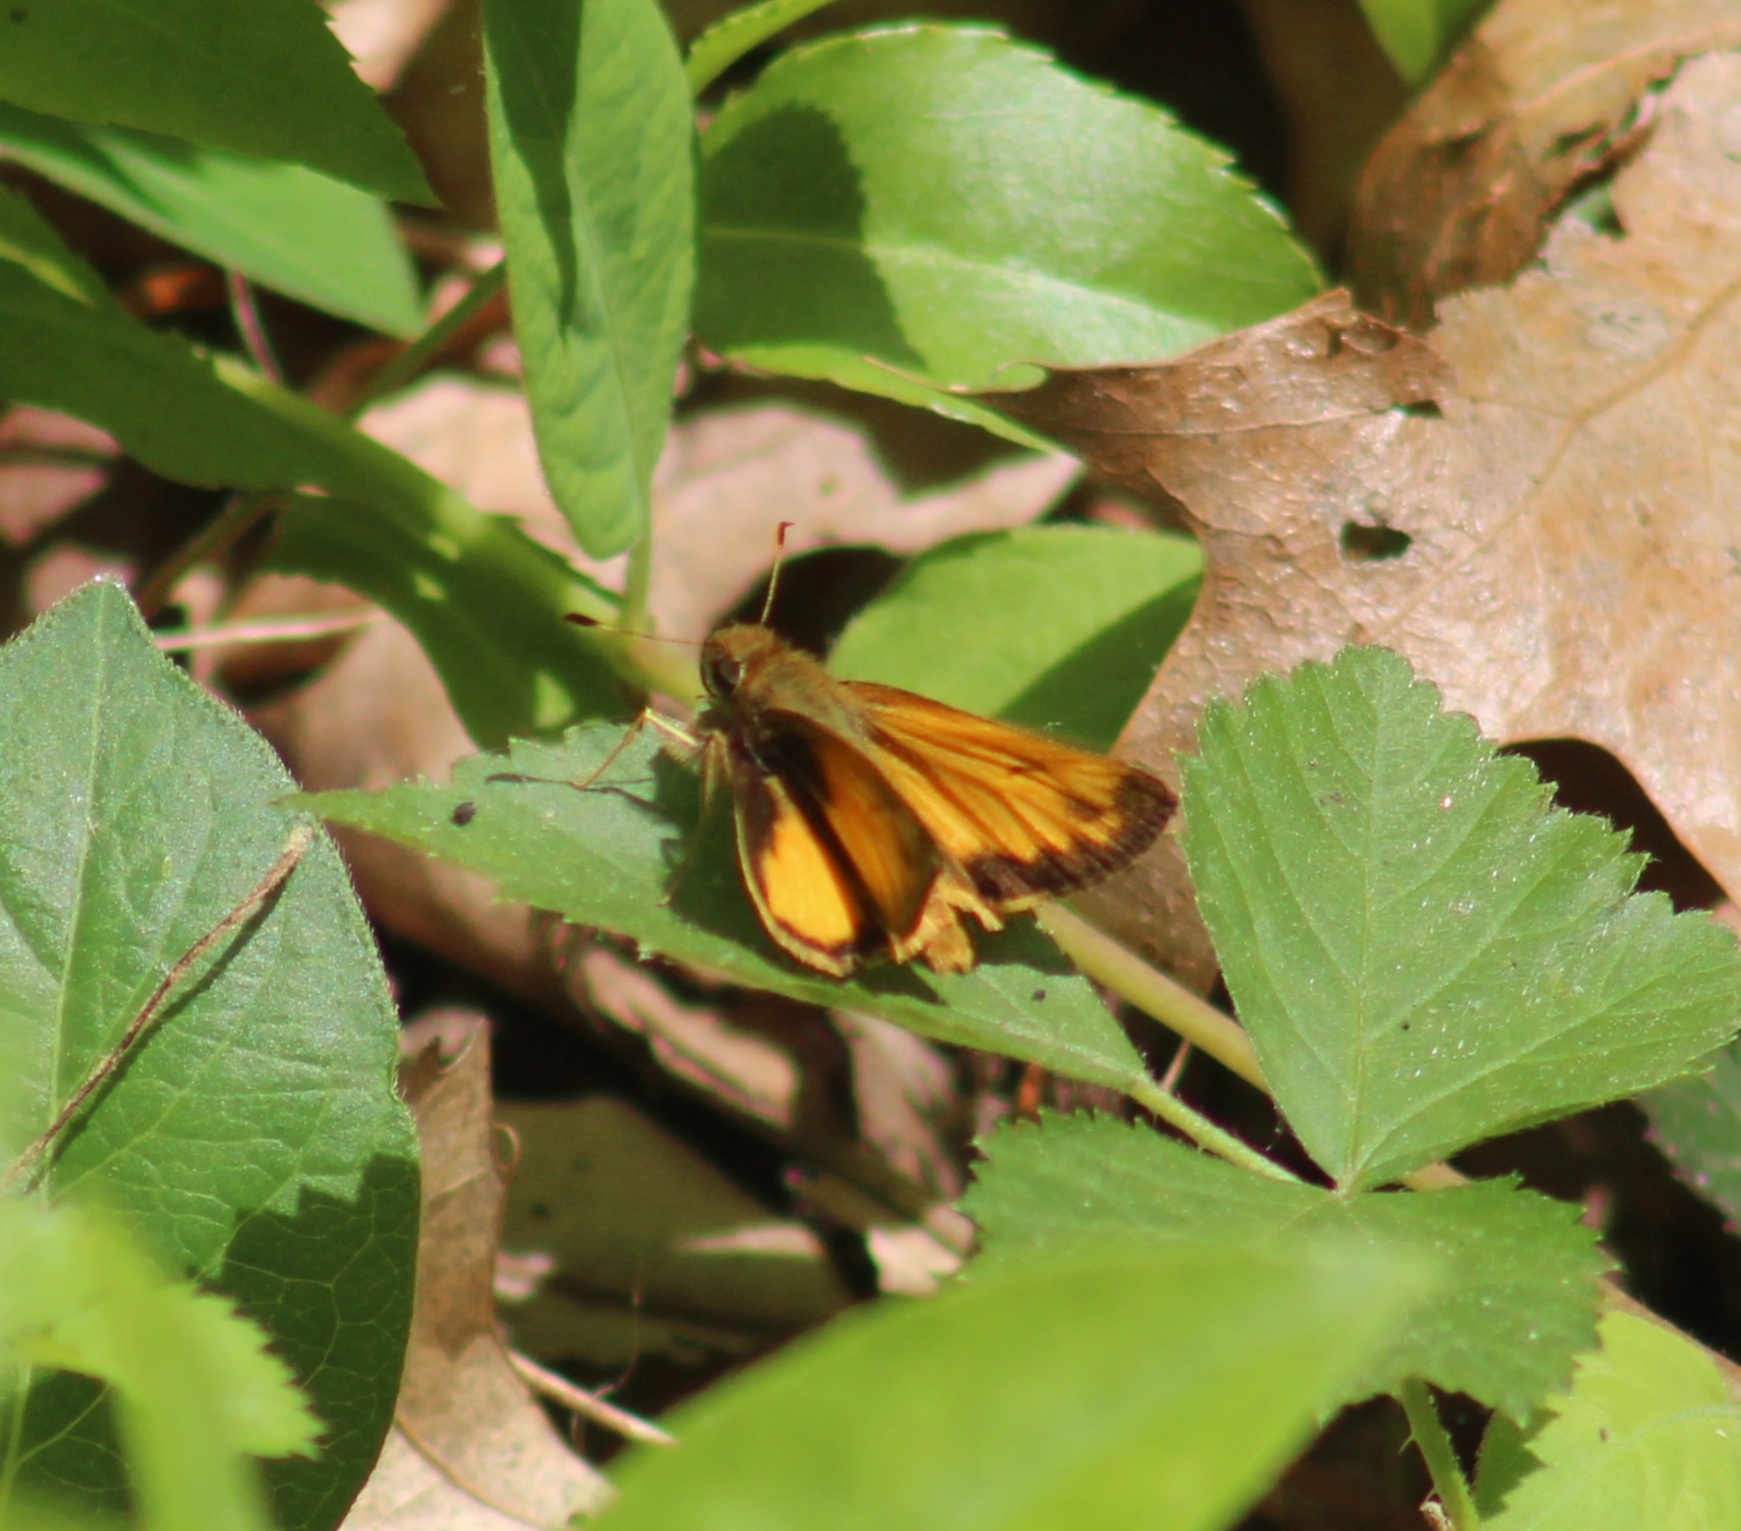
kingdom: Animalia
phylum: Arthropoda
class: Insecta
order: Lepidoptera
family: Hesperiidae
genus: Lon
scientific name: Lon zabulon
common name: Zabulon skipper
